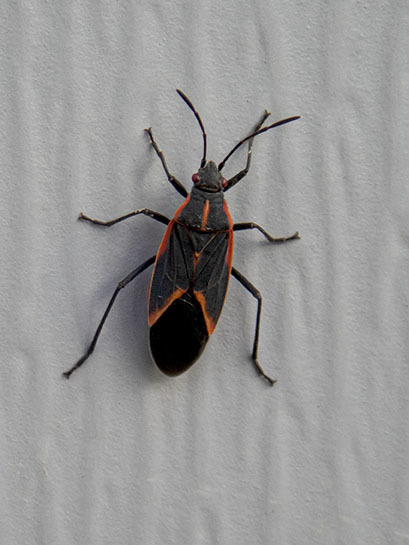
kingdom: Animalia
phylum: Arthropoda
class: Insecta
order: Hemiptera
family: Rhopalidae
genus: Boisea
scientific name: Boisea trivittata
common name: Boxelder bug
